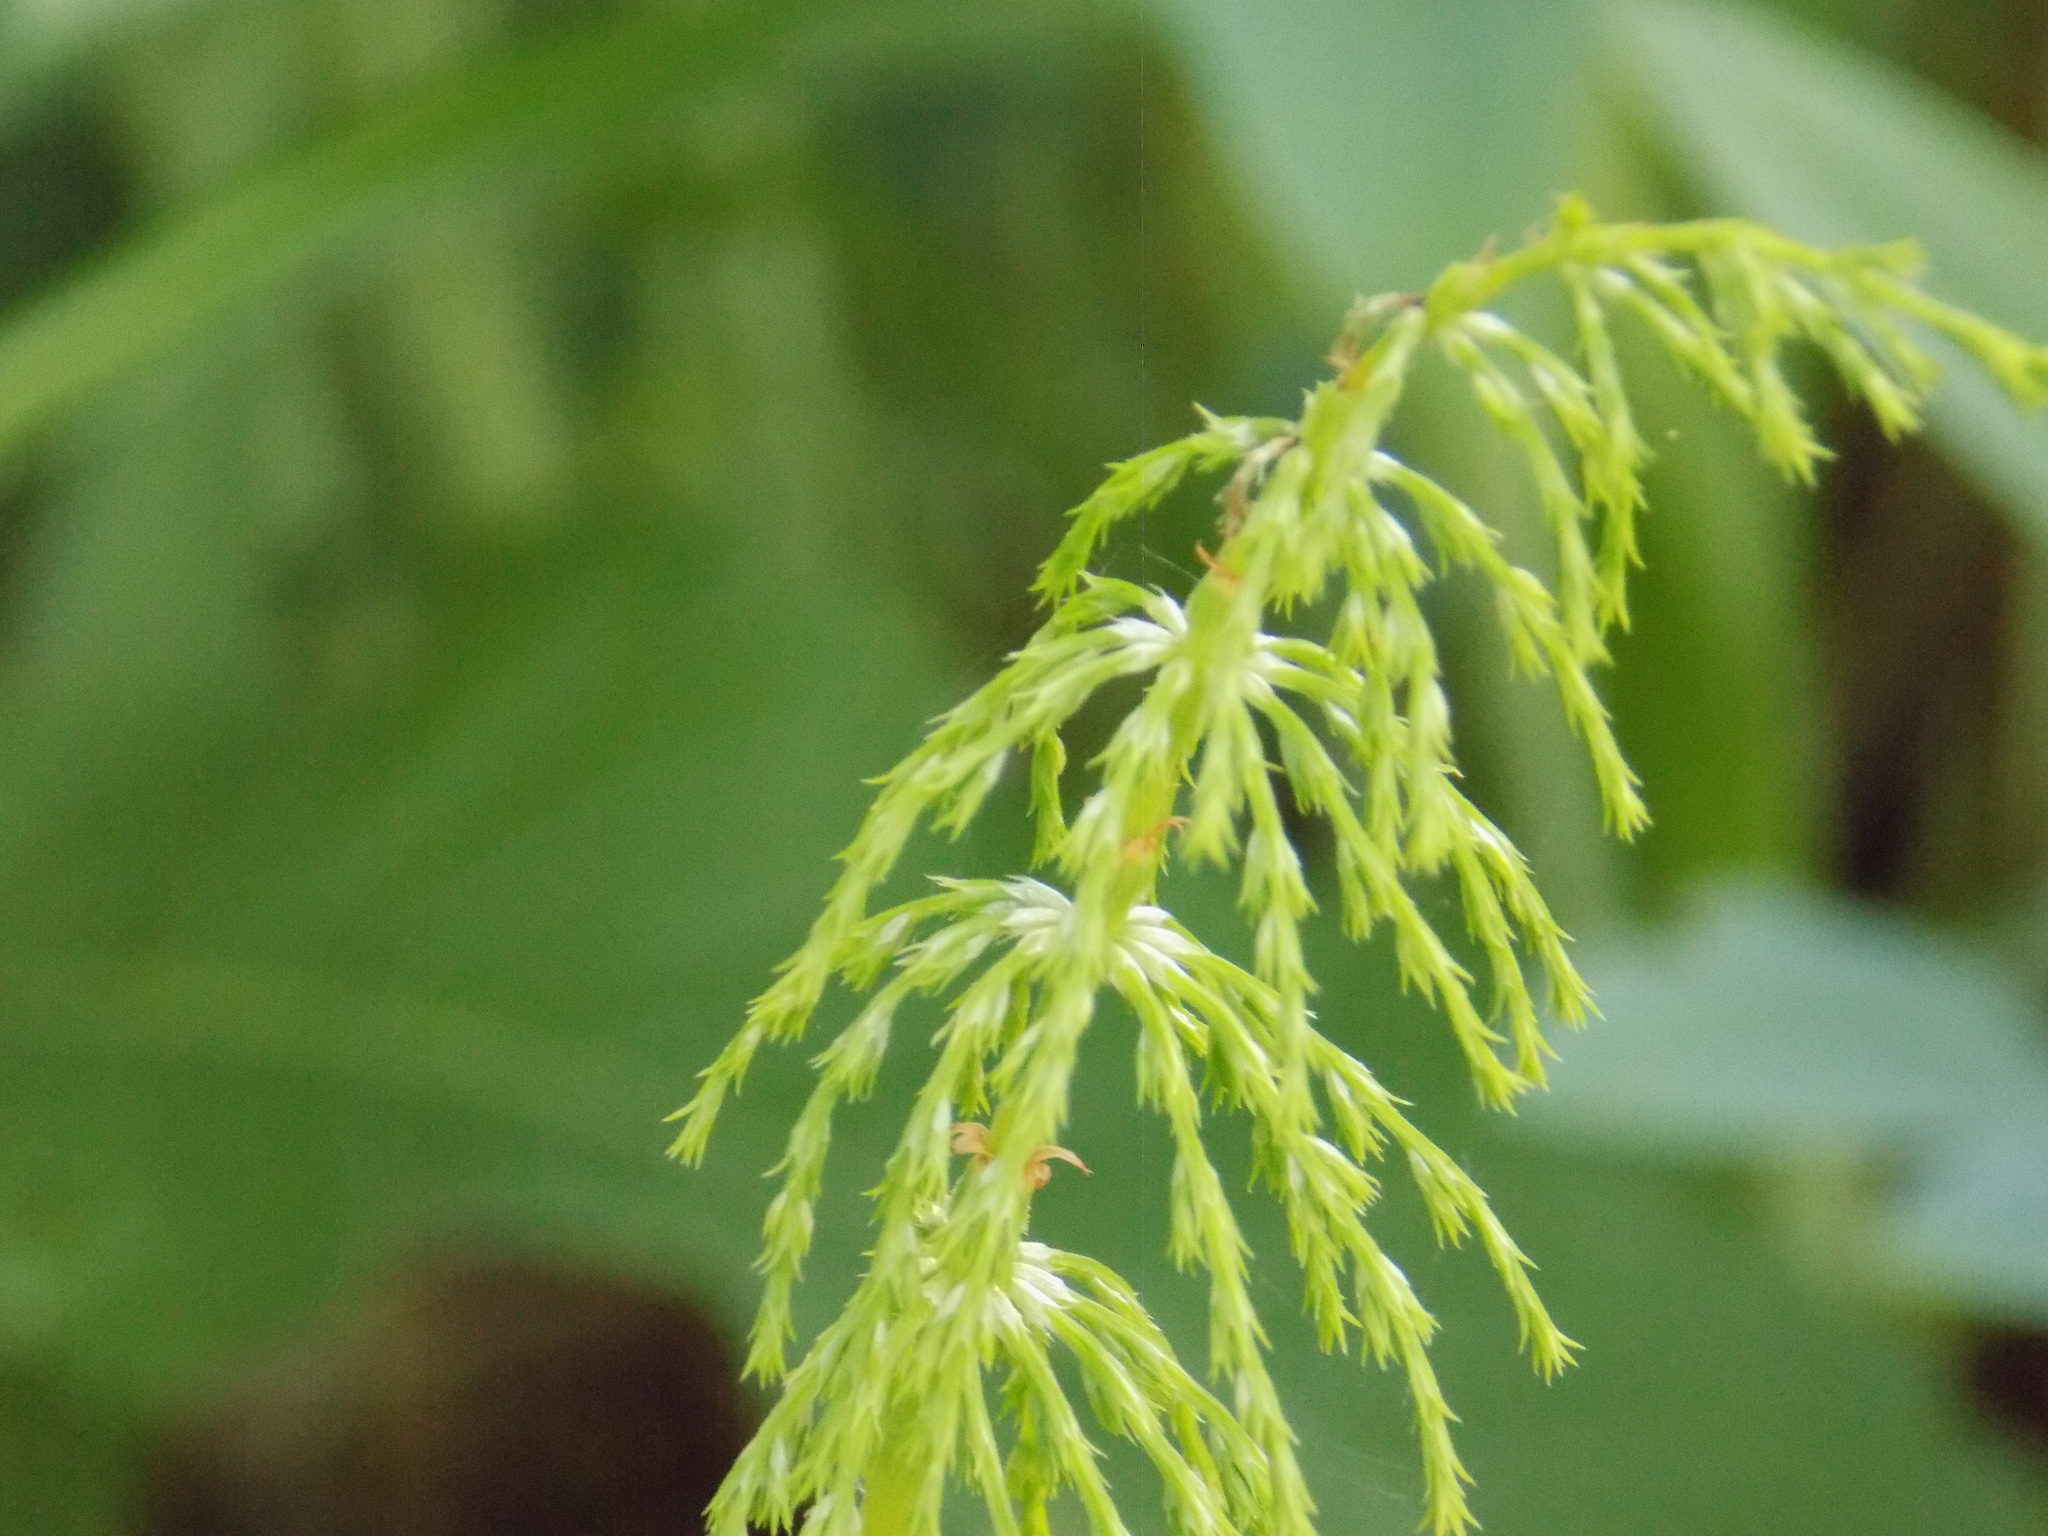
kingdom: Plantae
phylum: Tracheophyta
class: Polypodiopsida
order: Equisetales
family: Equisetaceae
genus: Equisetum
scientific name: Equisetum sylvaticum
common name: Wood horsetail
